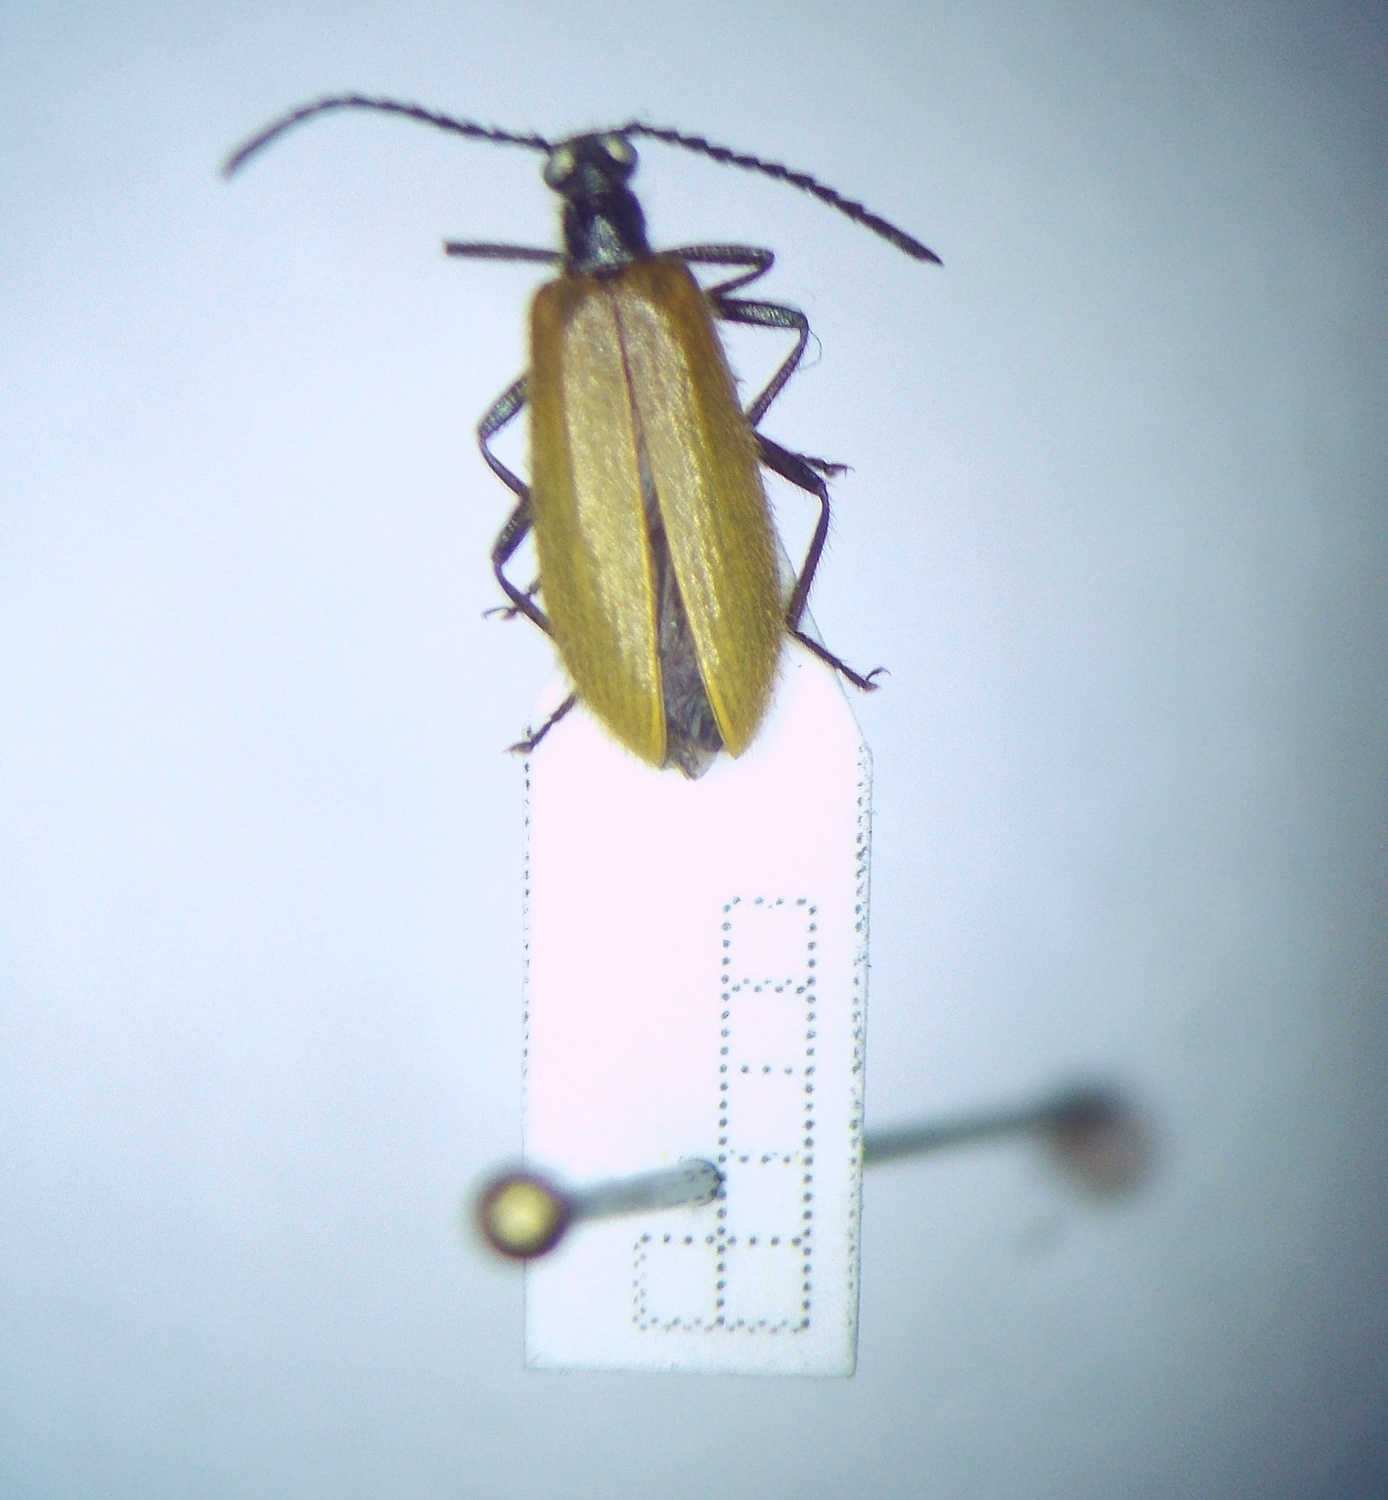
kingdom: Animalia
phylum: Arthropoda
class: Insecta
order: Coleoptera
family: Tenebrionidae
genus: Lagria
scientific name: Lagria hirta
